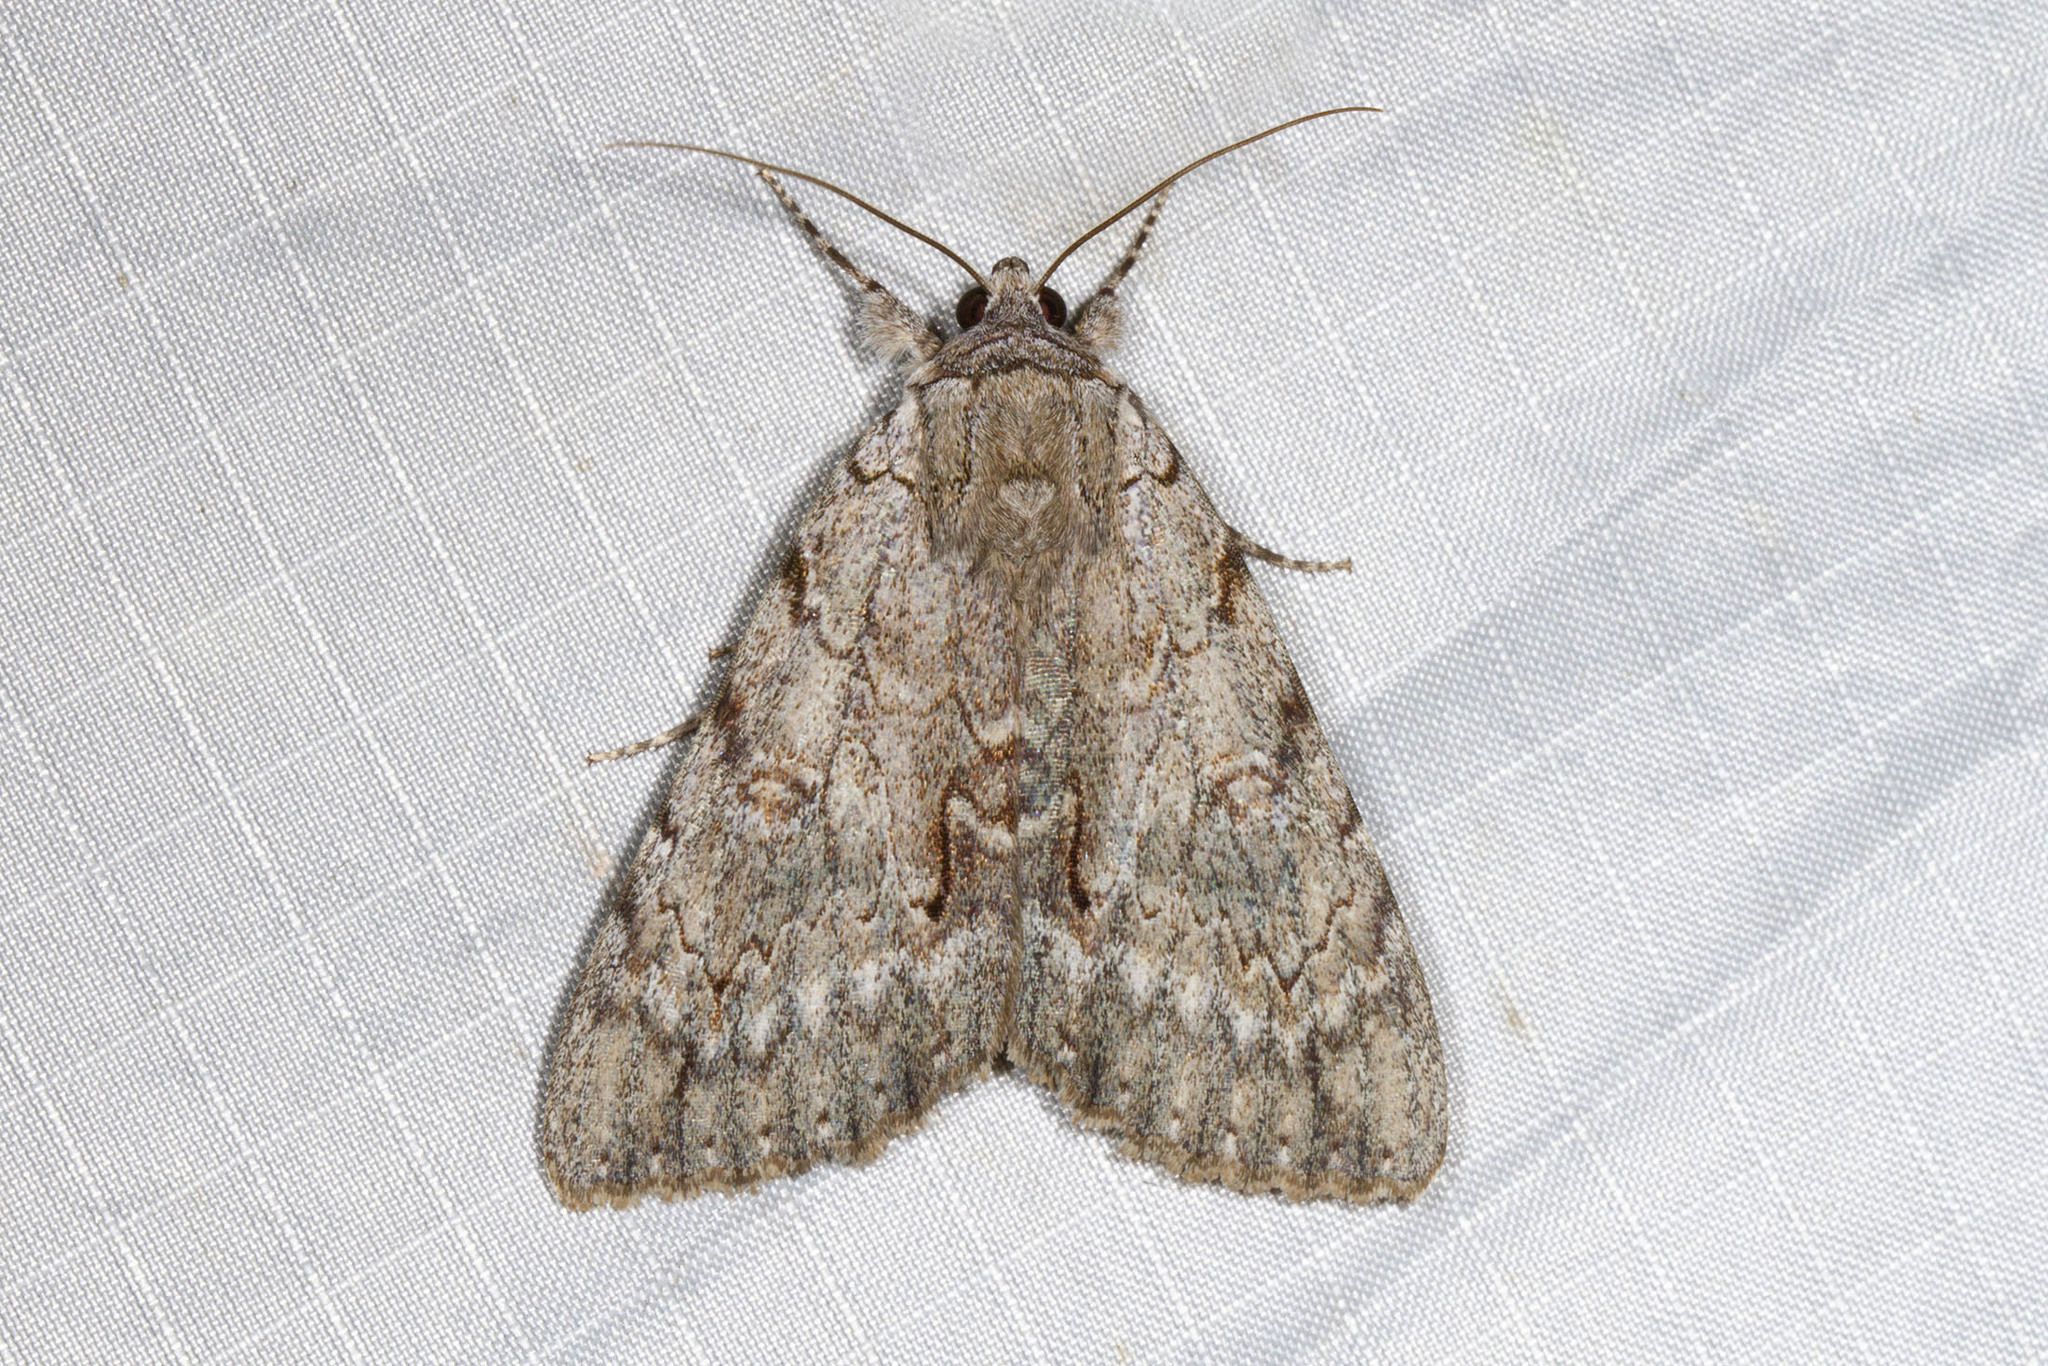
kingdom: Animalia
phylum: Arthropoda
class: Insecta
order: Lepidoptera
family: Erebidae
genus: Catocala
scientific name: Catocala habilis
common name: Habilis underwing
